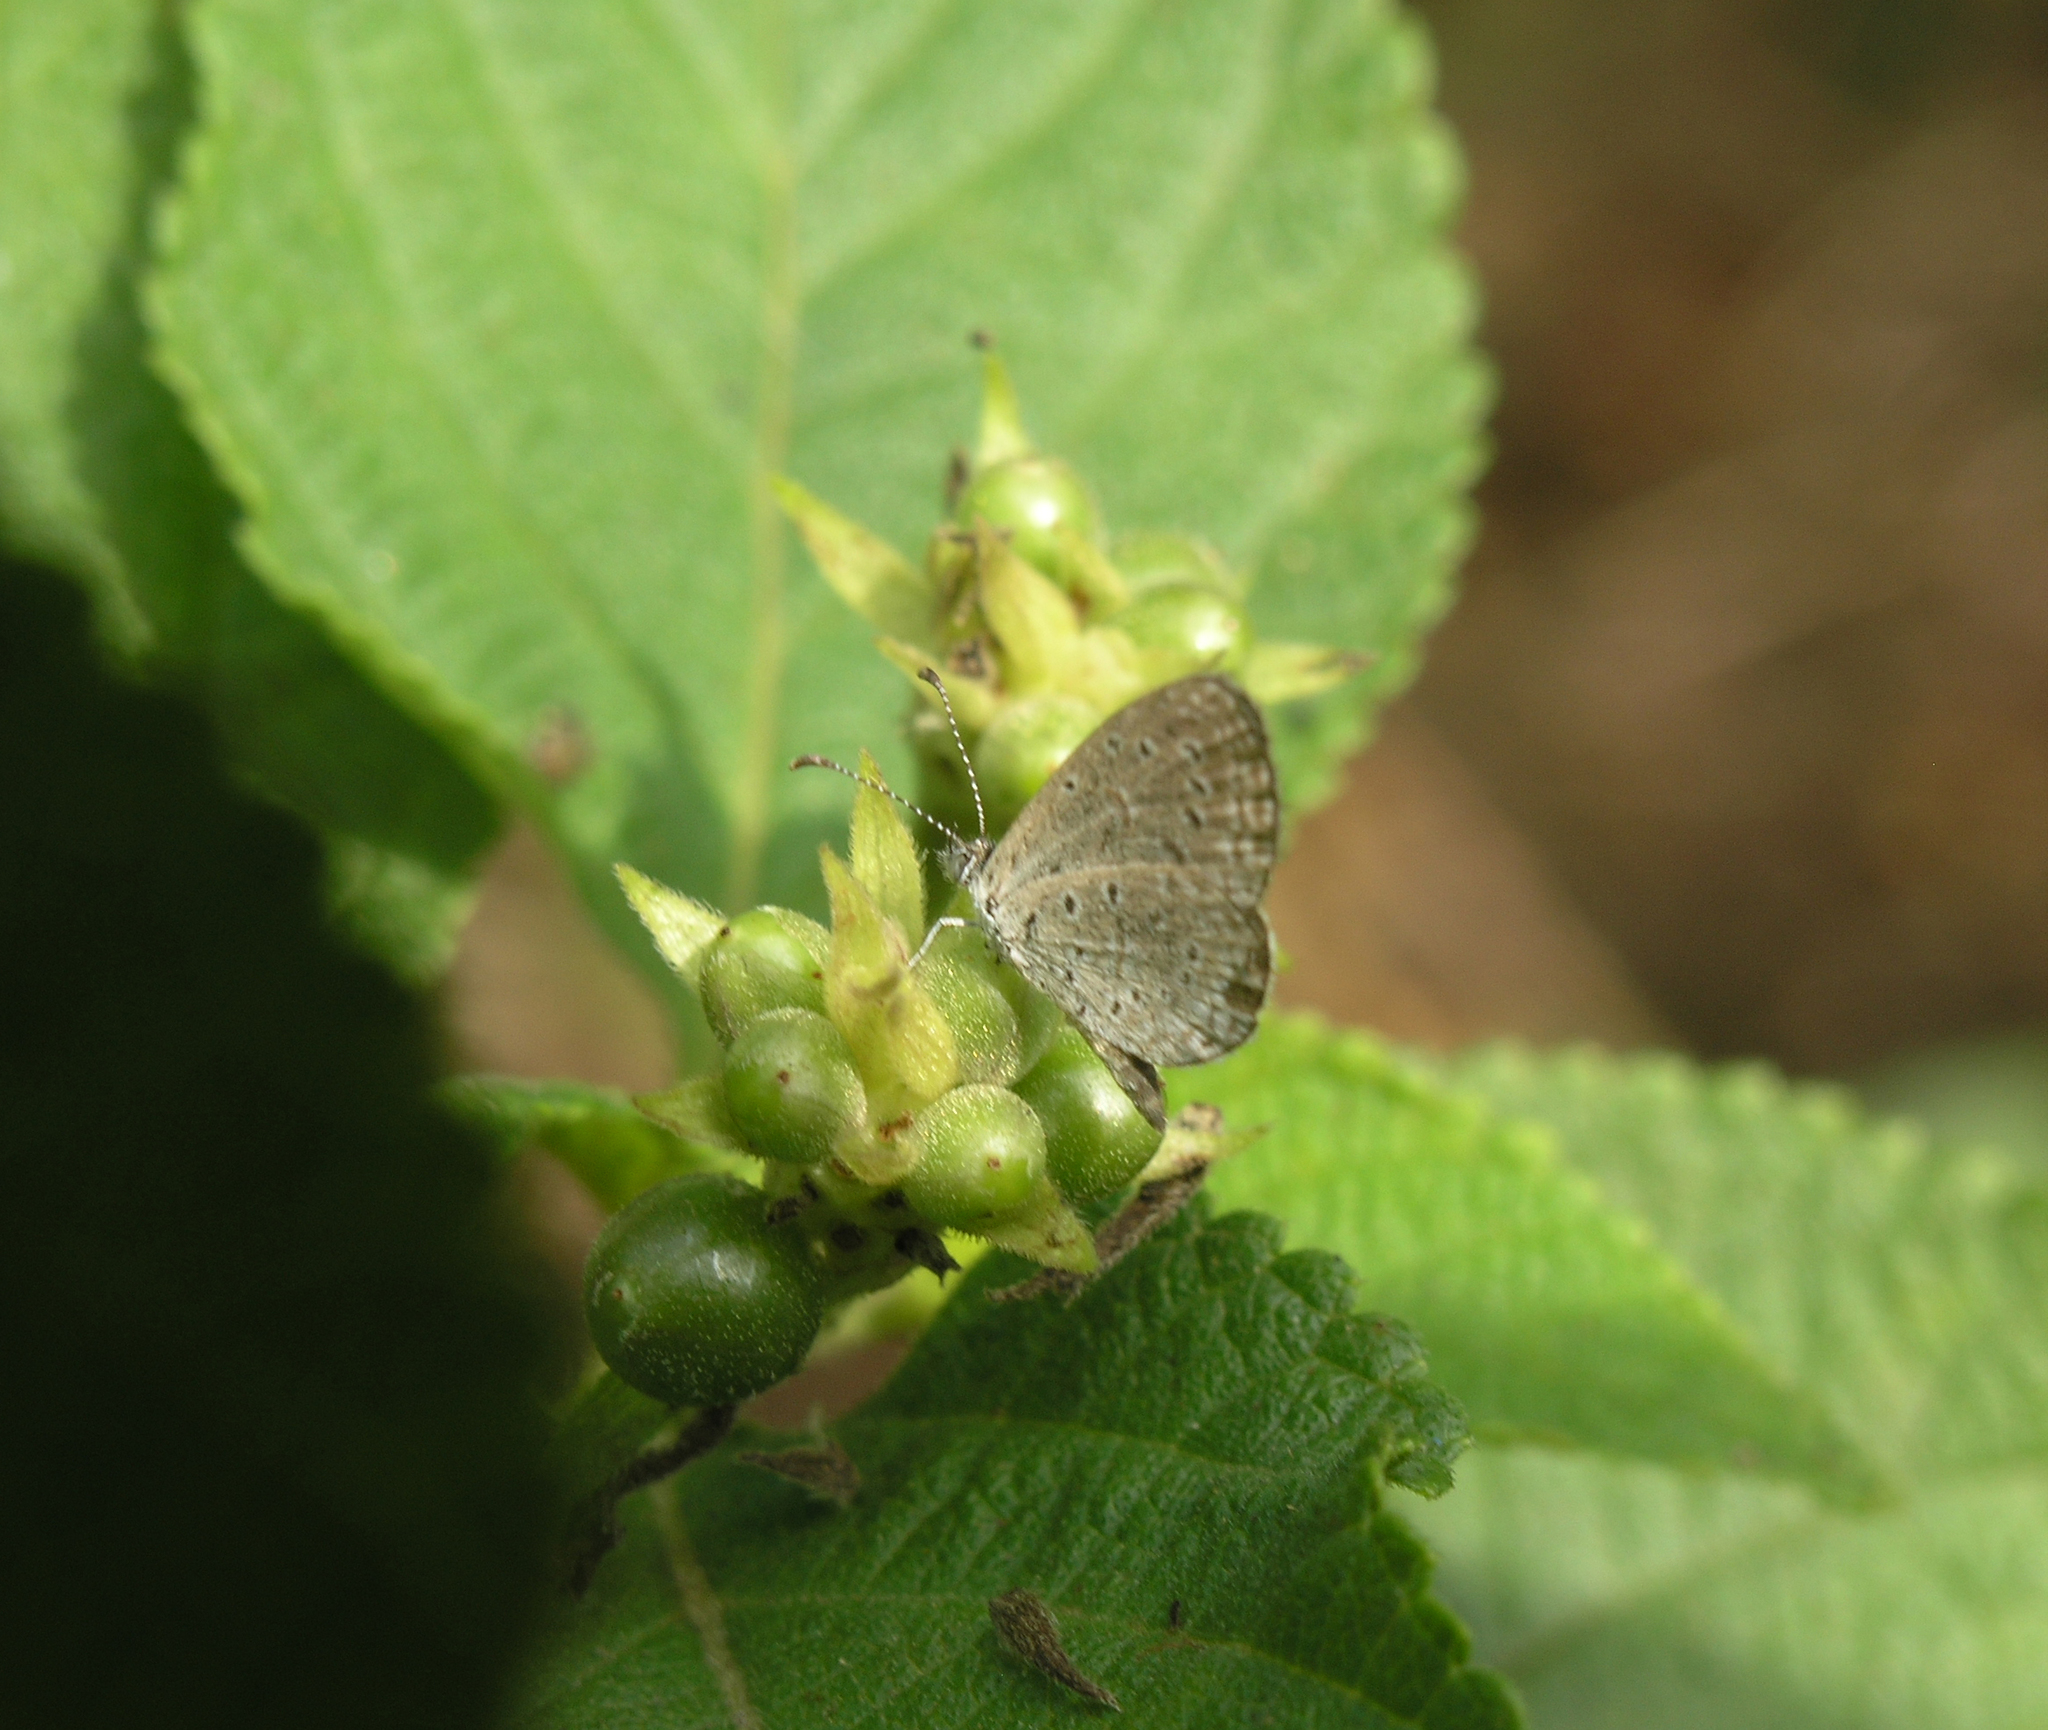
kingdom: Animalia
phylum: Arthropoda
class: Insecta
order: Lepidoptera
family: Lycaenidae
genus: Zizula
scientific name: Zizula hylax
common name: Gaika blue
